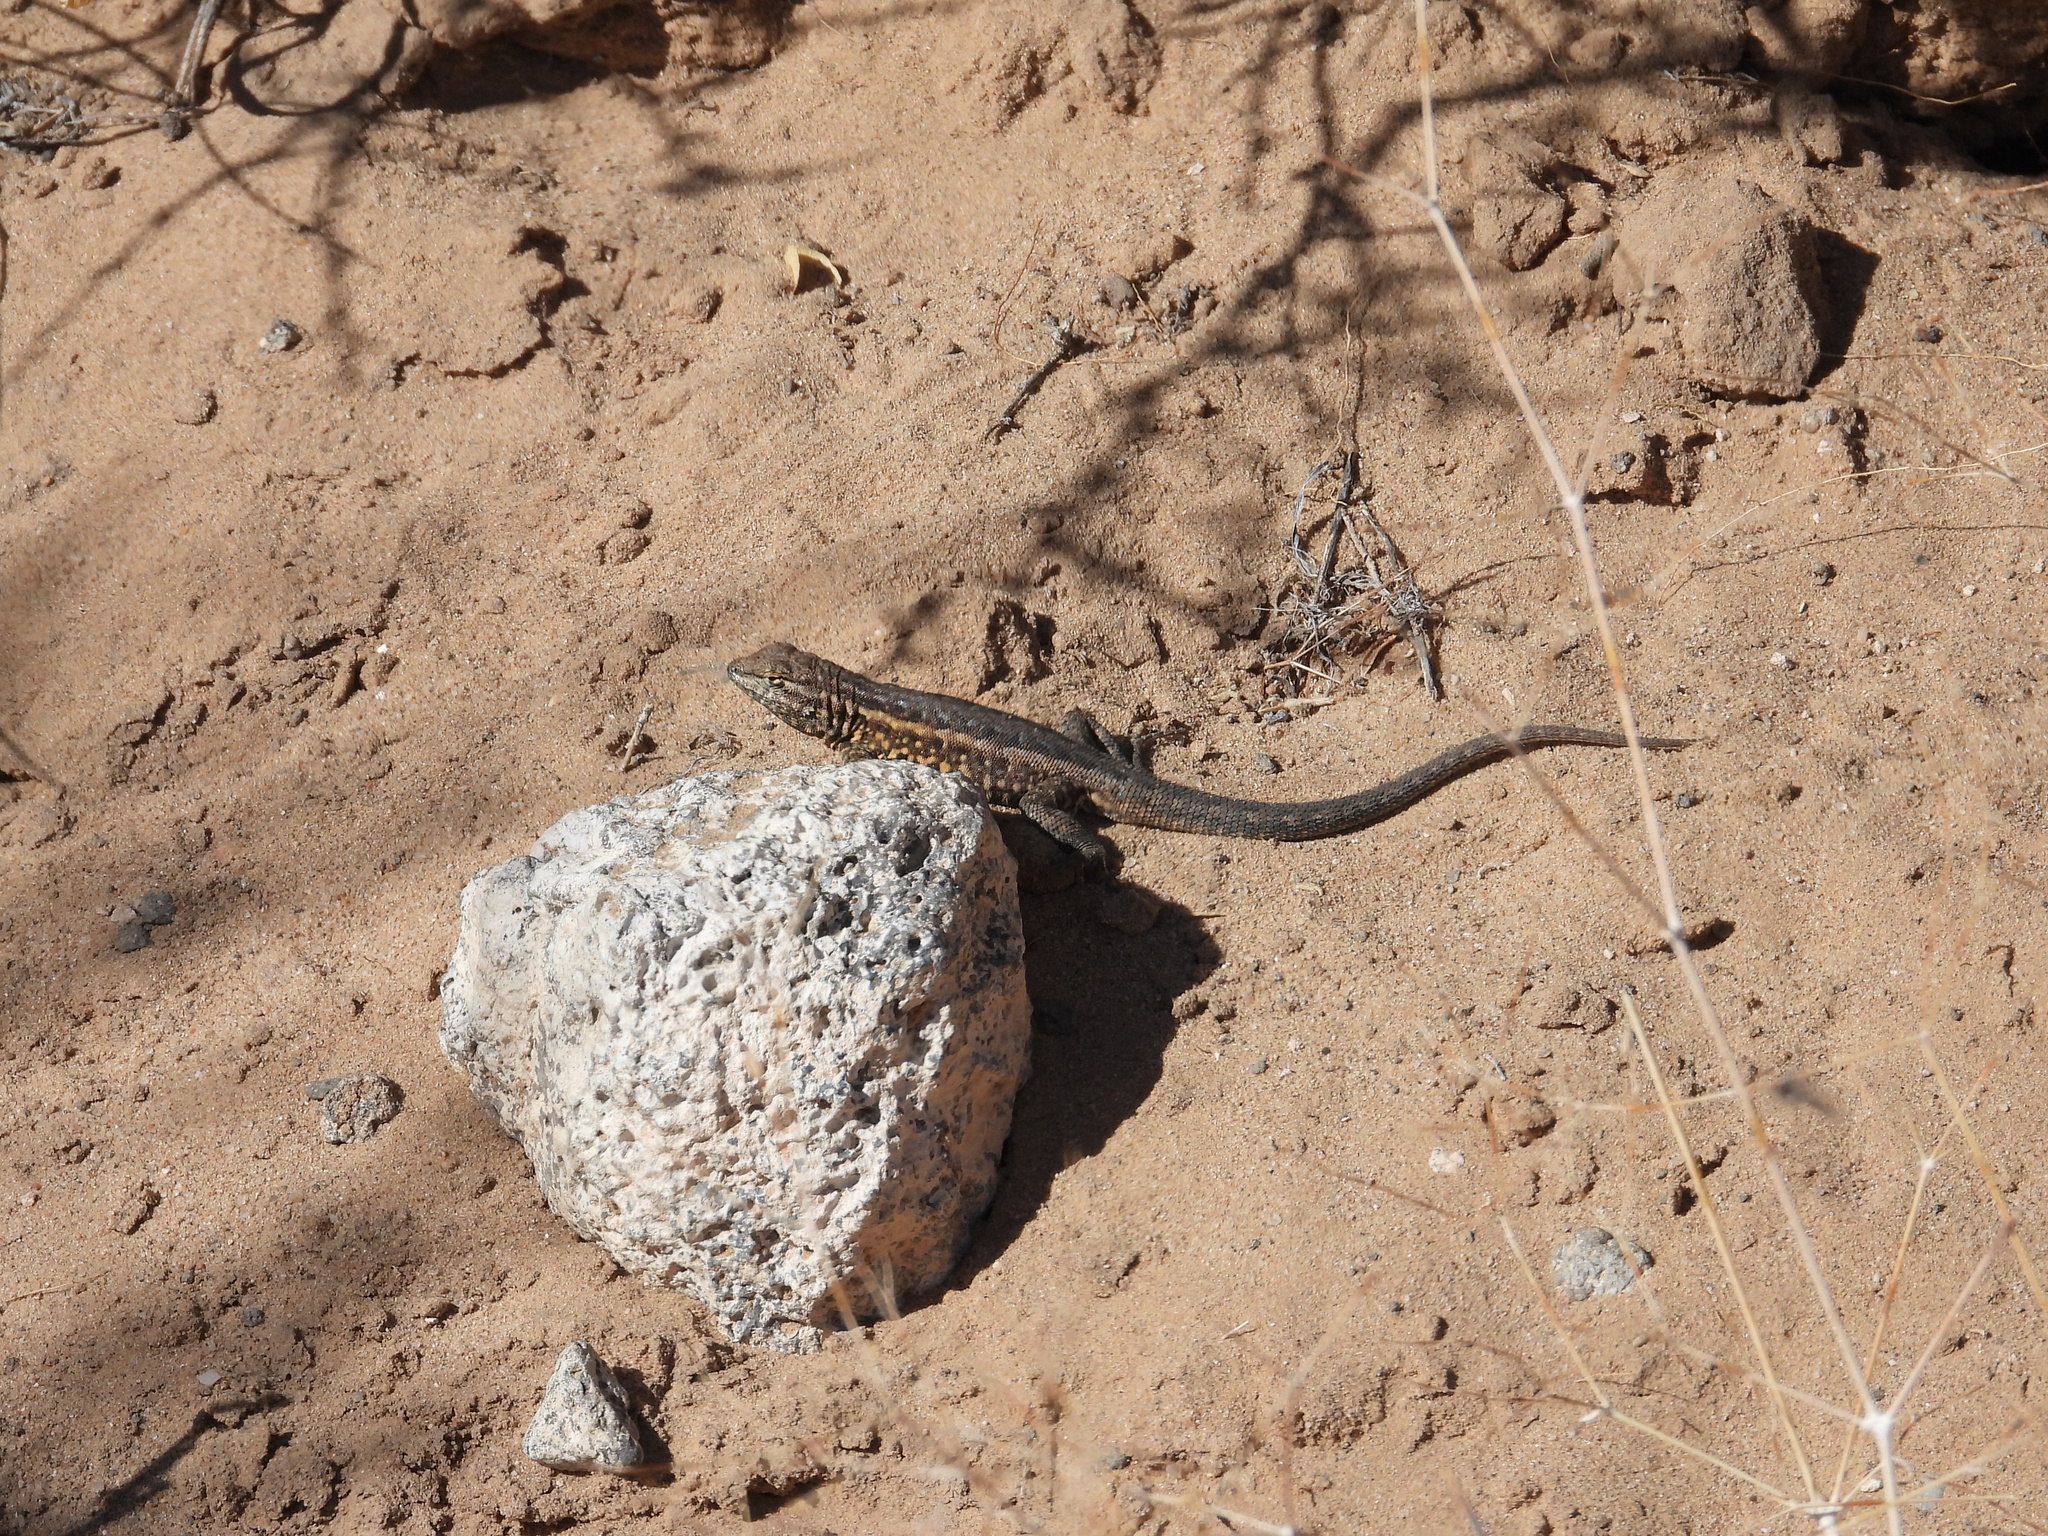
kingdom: Animalia
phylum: Chordata
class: Squamata
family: Phrynosomatidae
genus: Uta
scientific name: Uta stansburiana
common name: Side-blotched lizard
